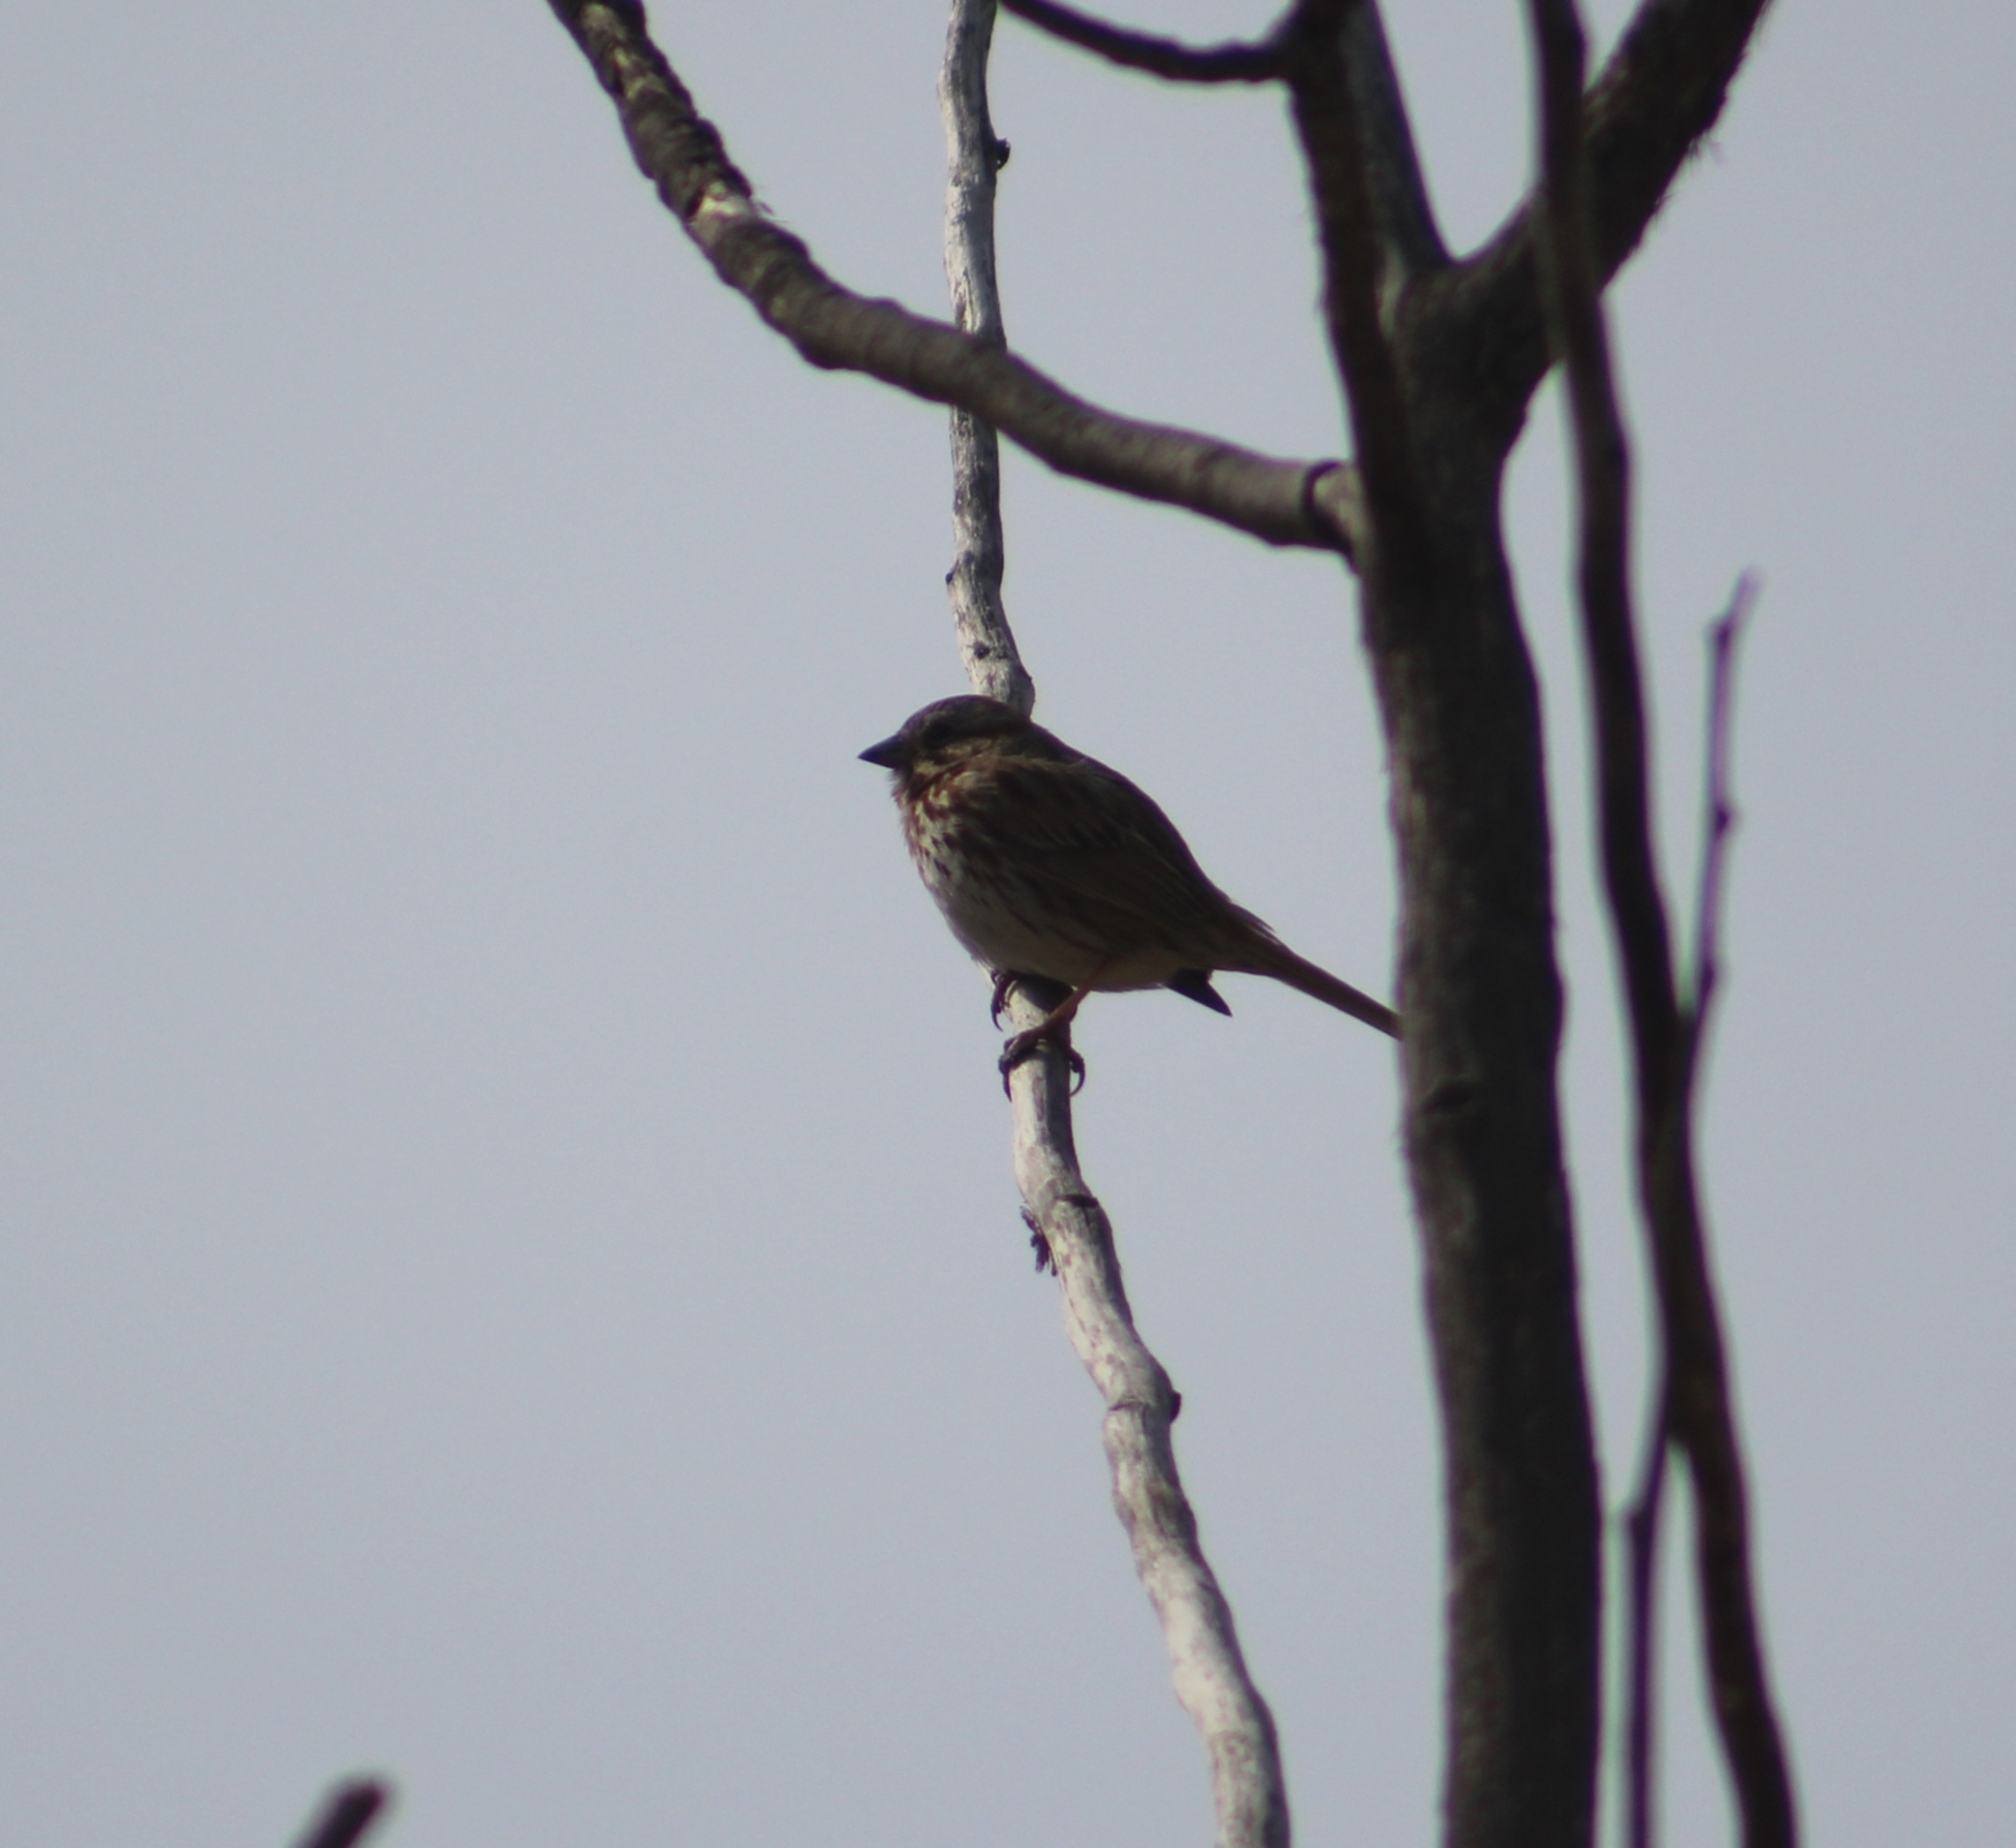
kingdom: Animalia
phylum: Chordata
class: Aves
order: Passeriformes
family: Passerellidae
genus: Melospiza
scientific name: Melospiza melodia
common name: Song sparrow
